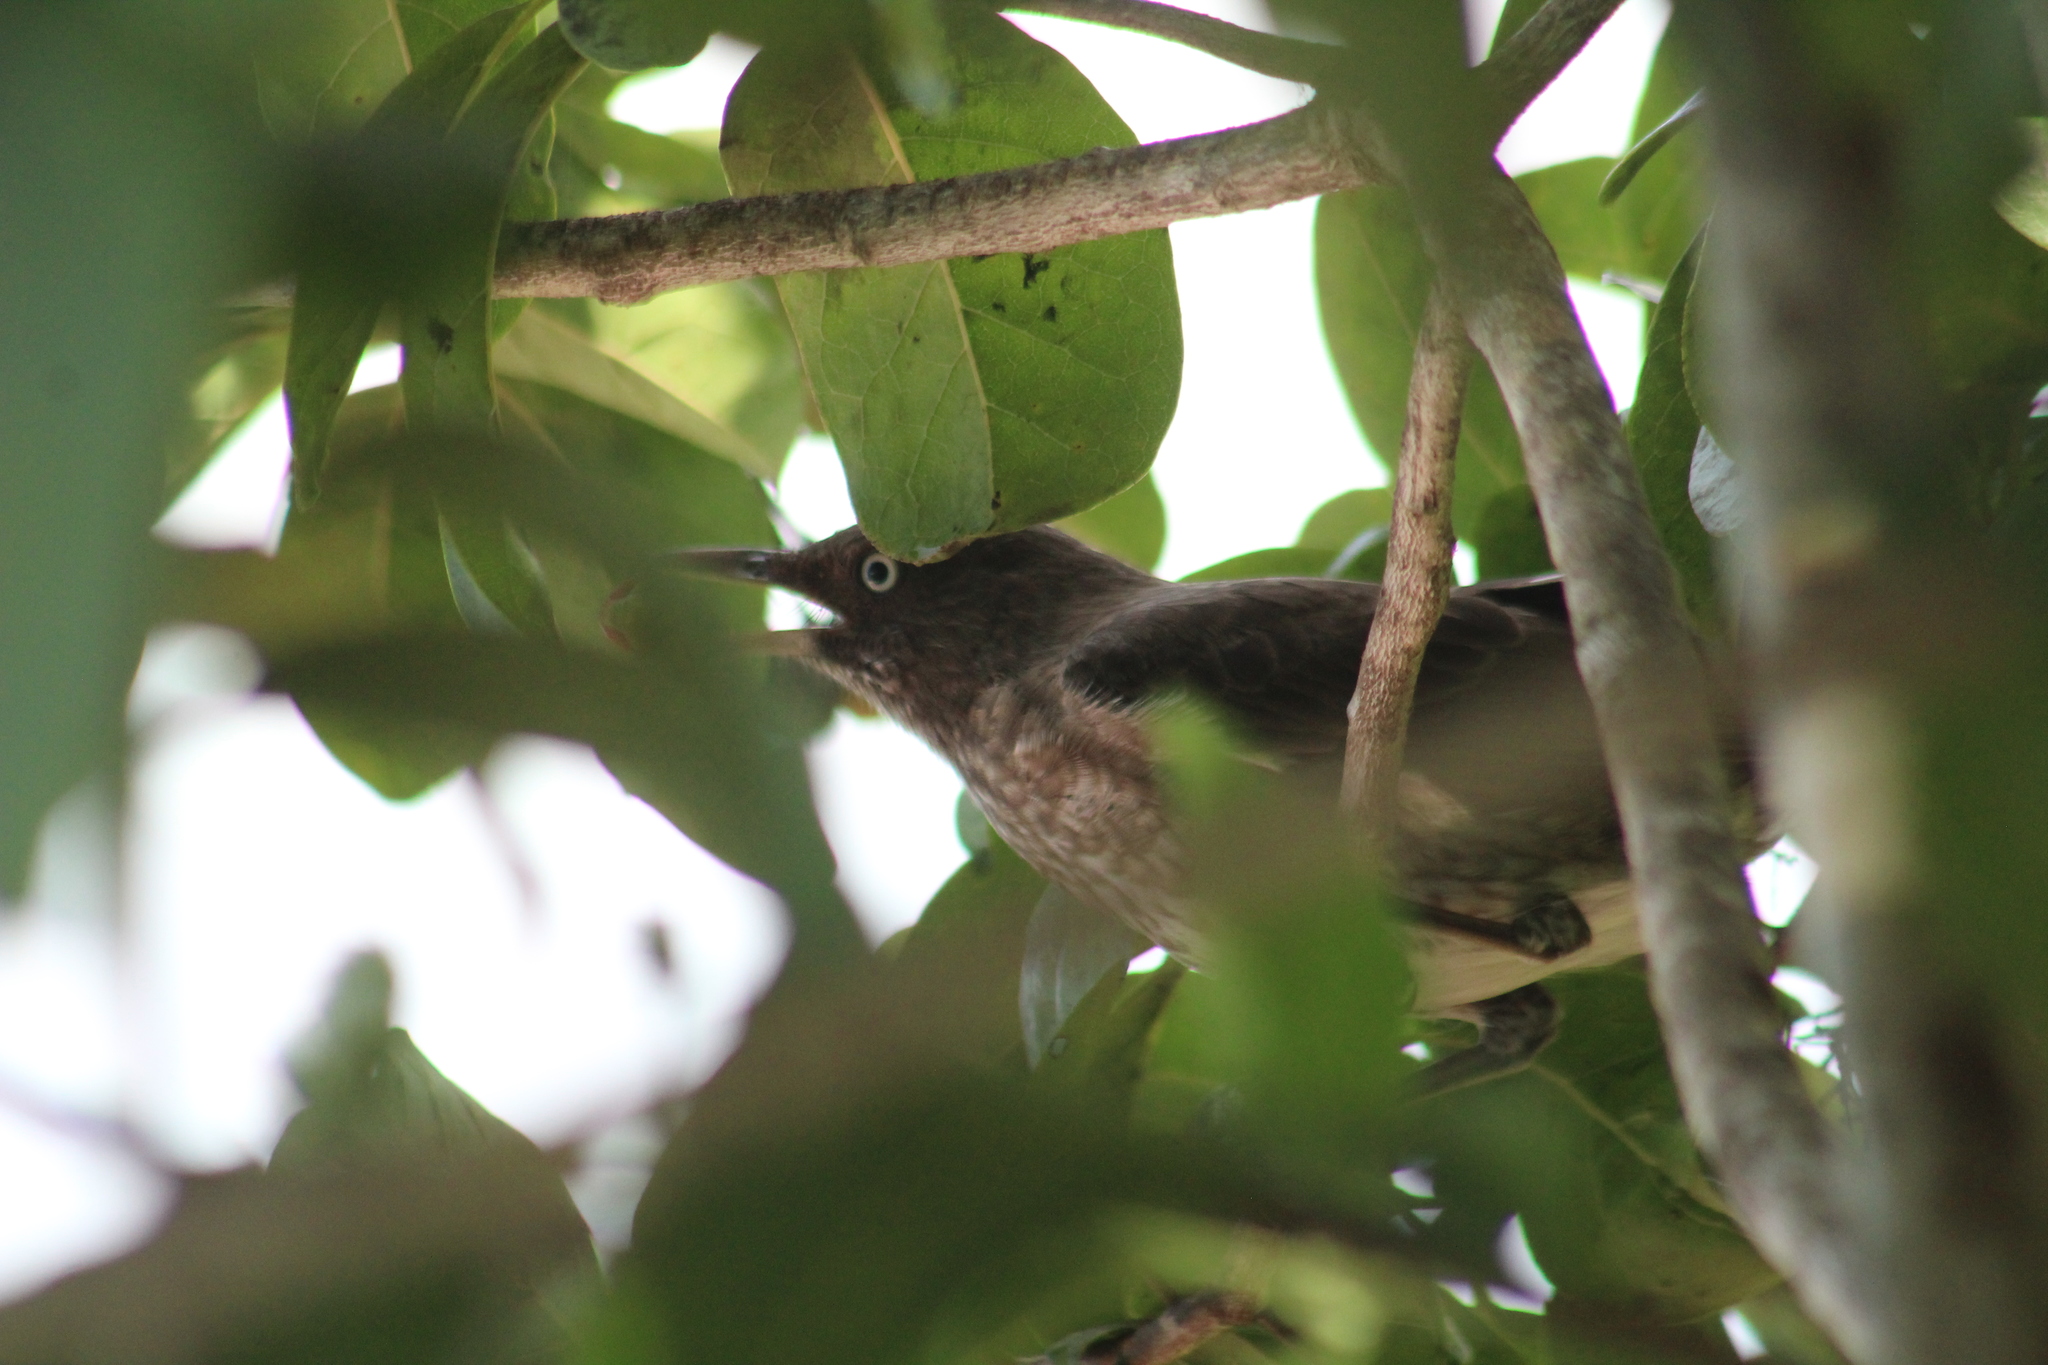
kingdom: Animalia
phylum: Chordata
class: Aves
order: Passeriformes
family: Mimidae
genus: Margarops
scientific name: Margarops fuscatus
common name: Pearly-eyed thrasher
